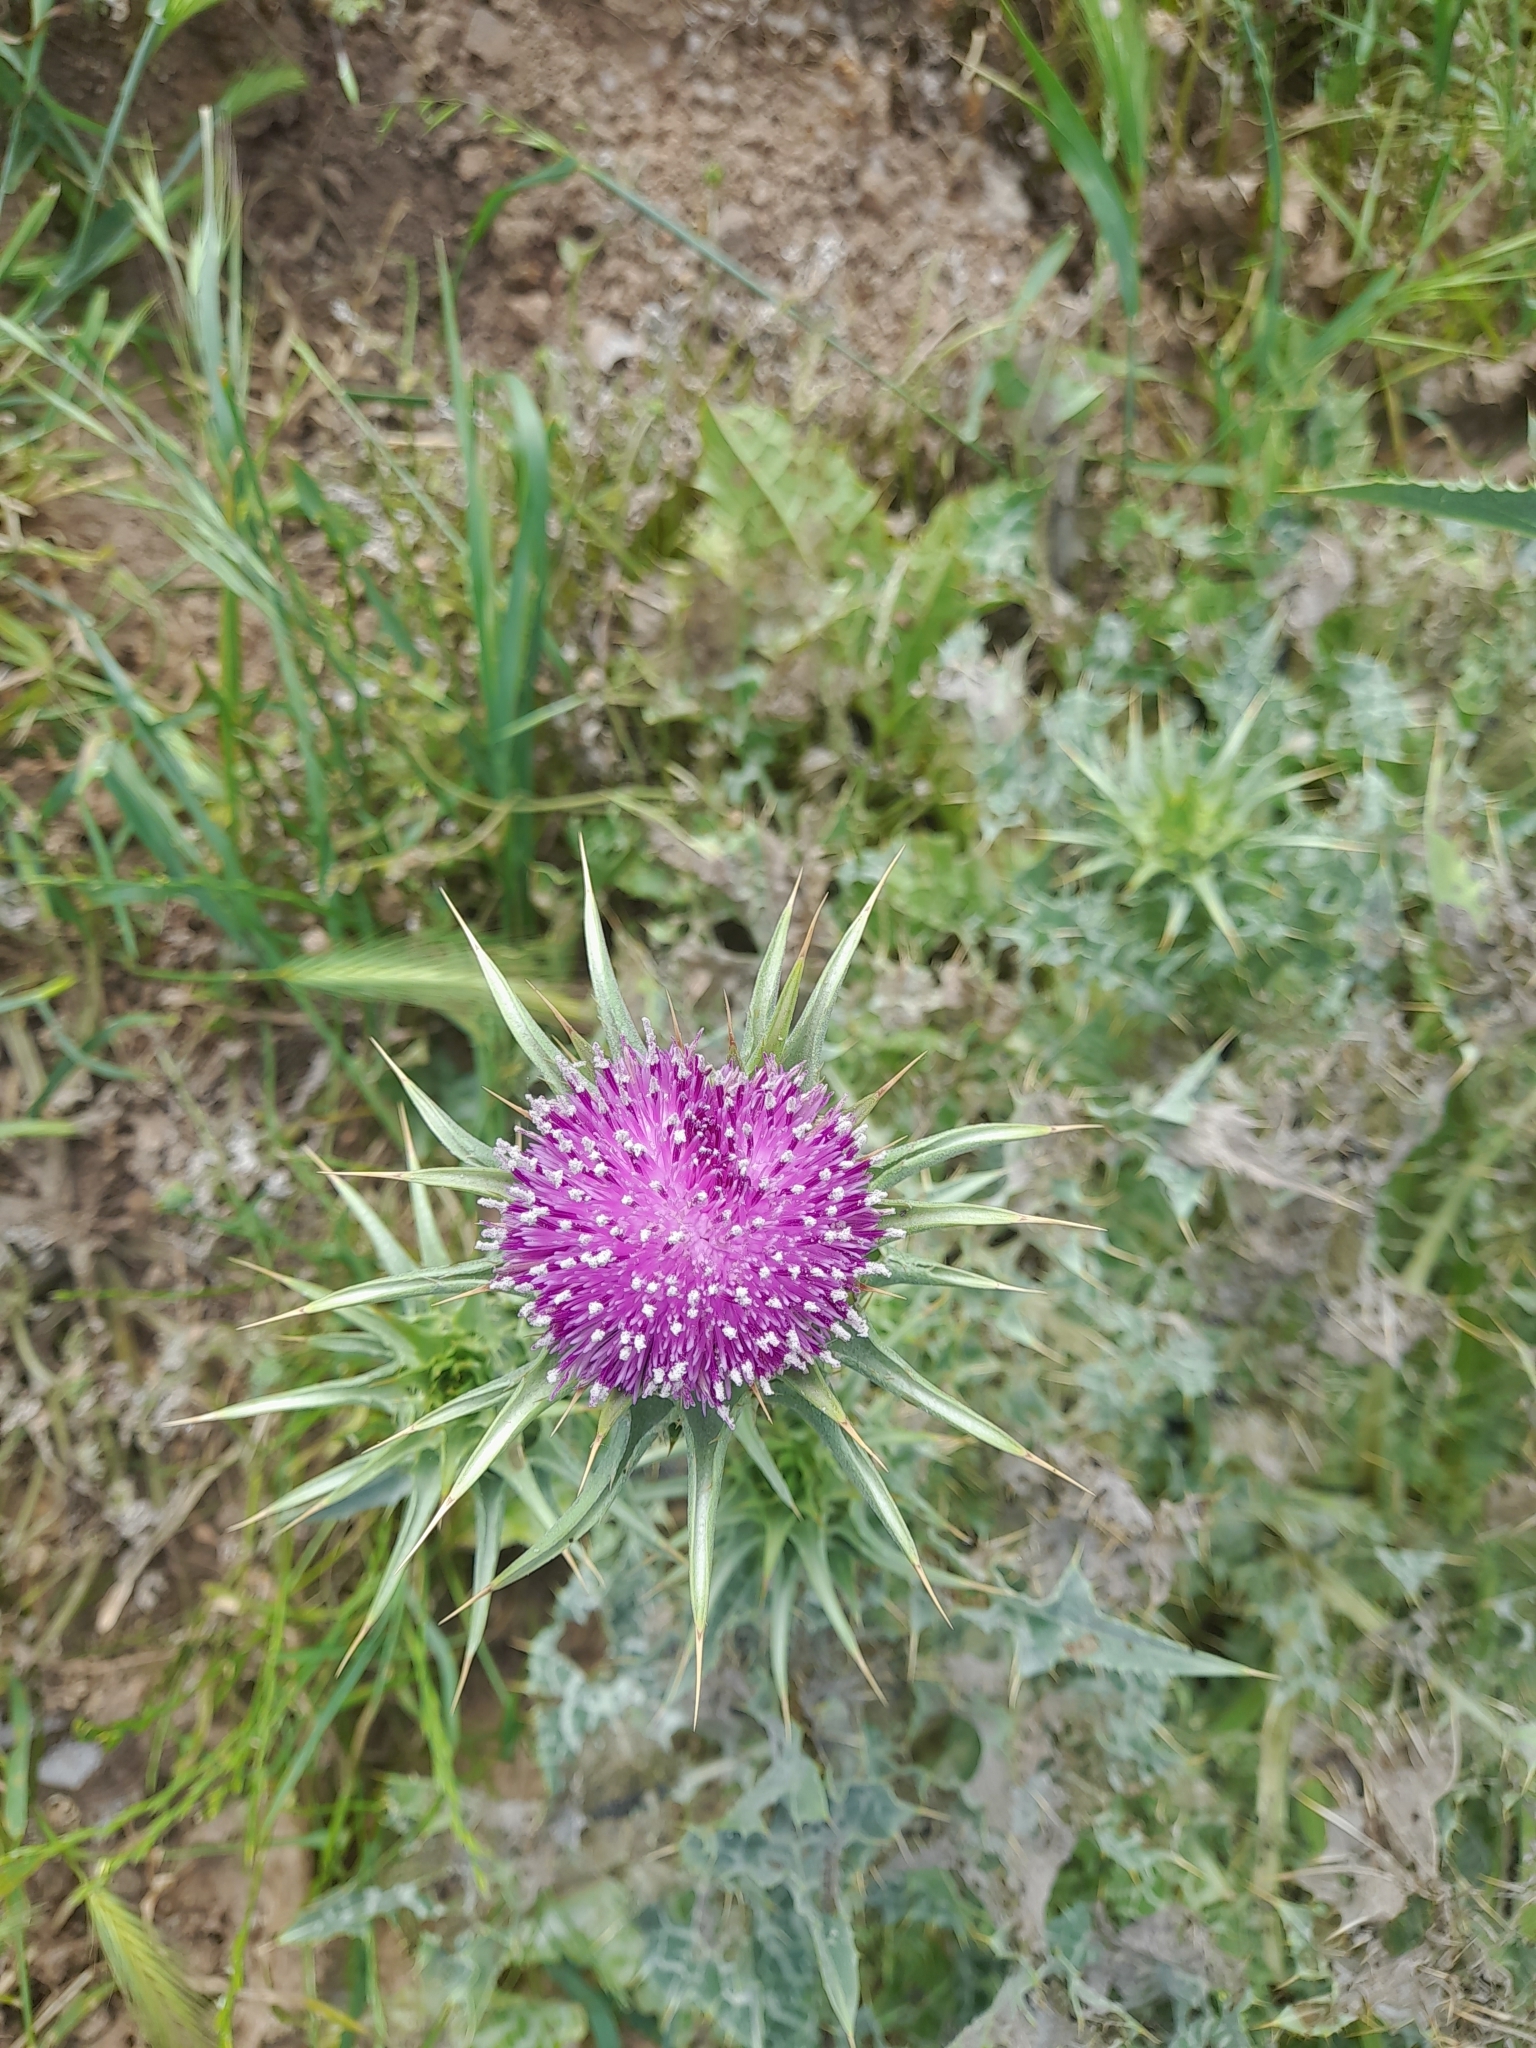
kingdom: Plantae
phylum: Tracheophyta
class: Magnoliopsida
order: Asterales
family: Asteraceae
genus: Silybum
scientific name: Silybum marianum
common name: Milk thistle
